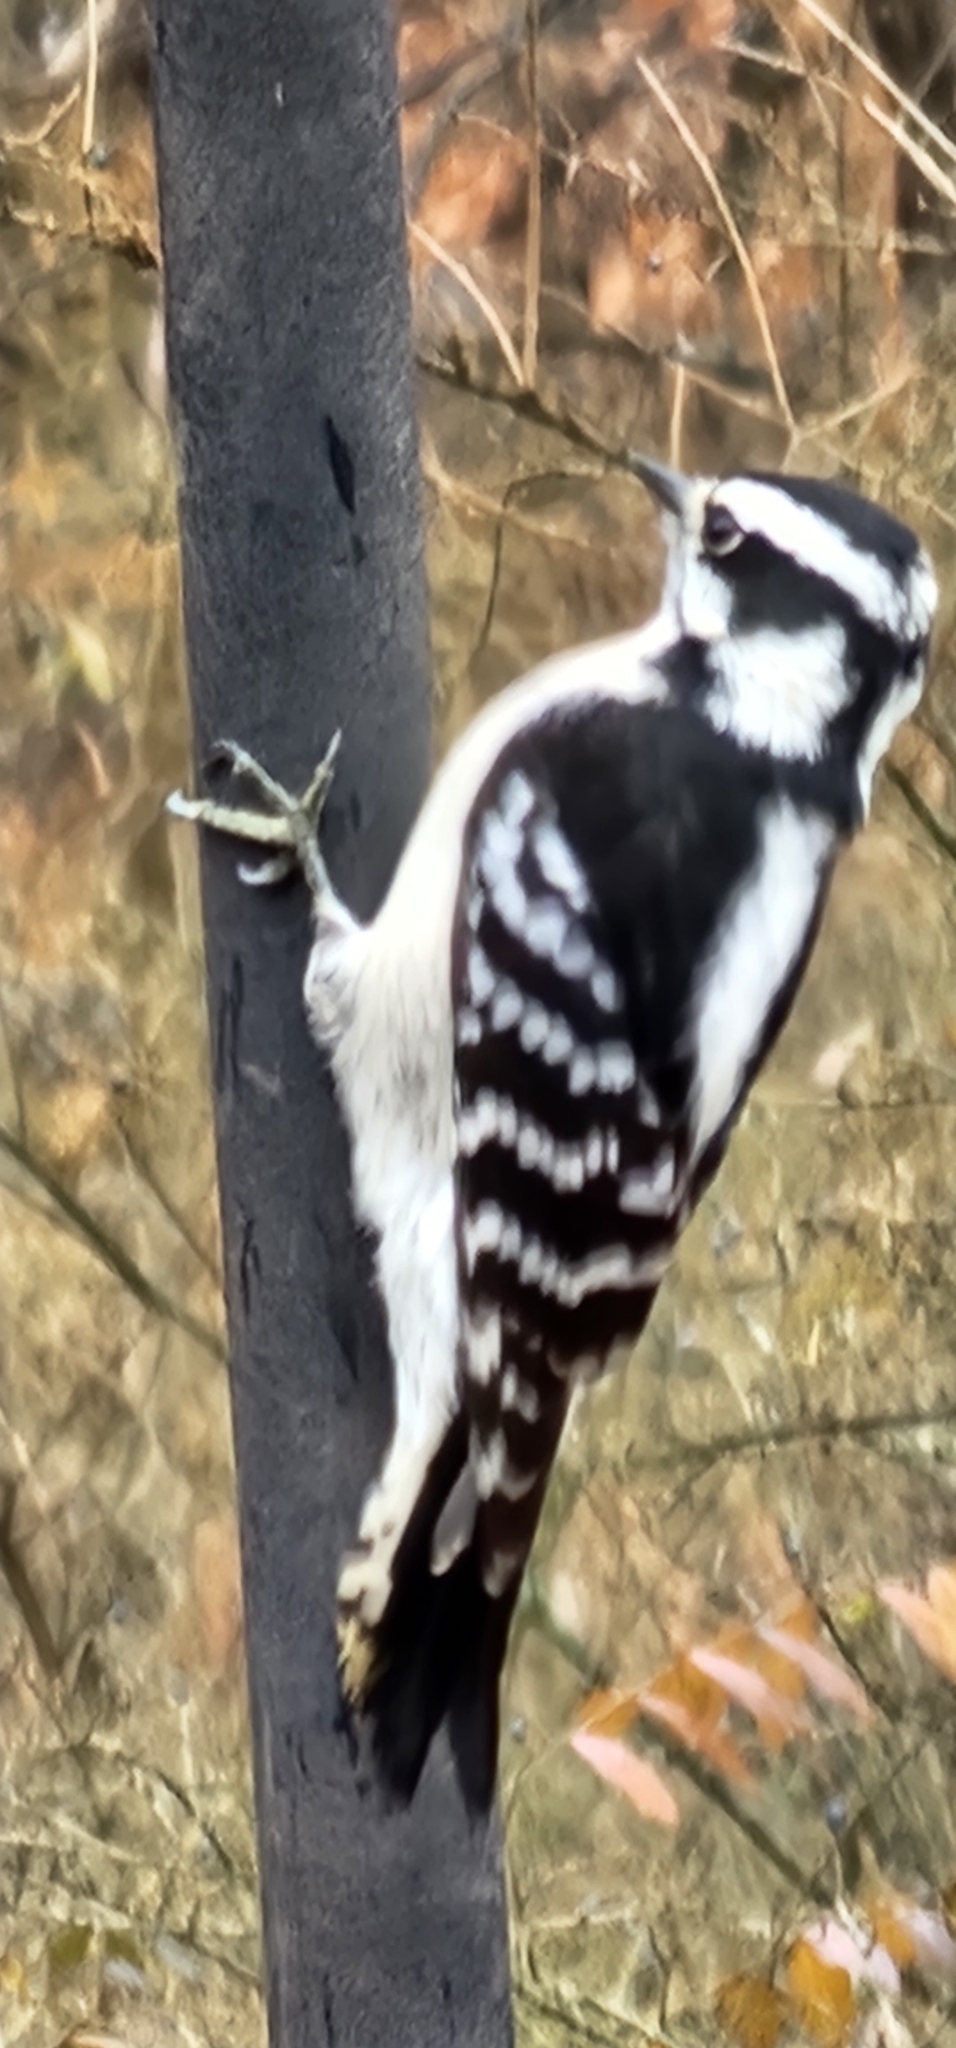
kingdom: Animalia
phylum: Chordata
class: Aves
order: Piciformes
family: Picidae
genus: Leuconotopicus
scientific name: Leuconotopicus villosus
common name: Hairy woodpecker
